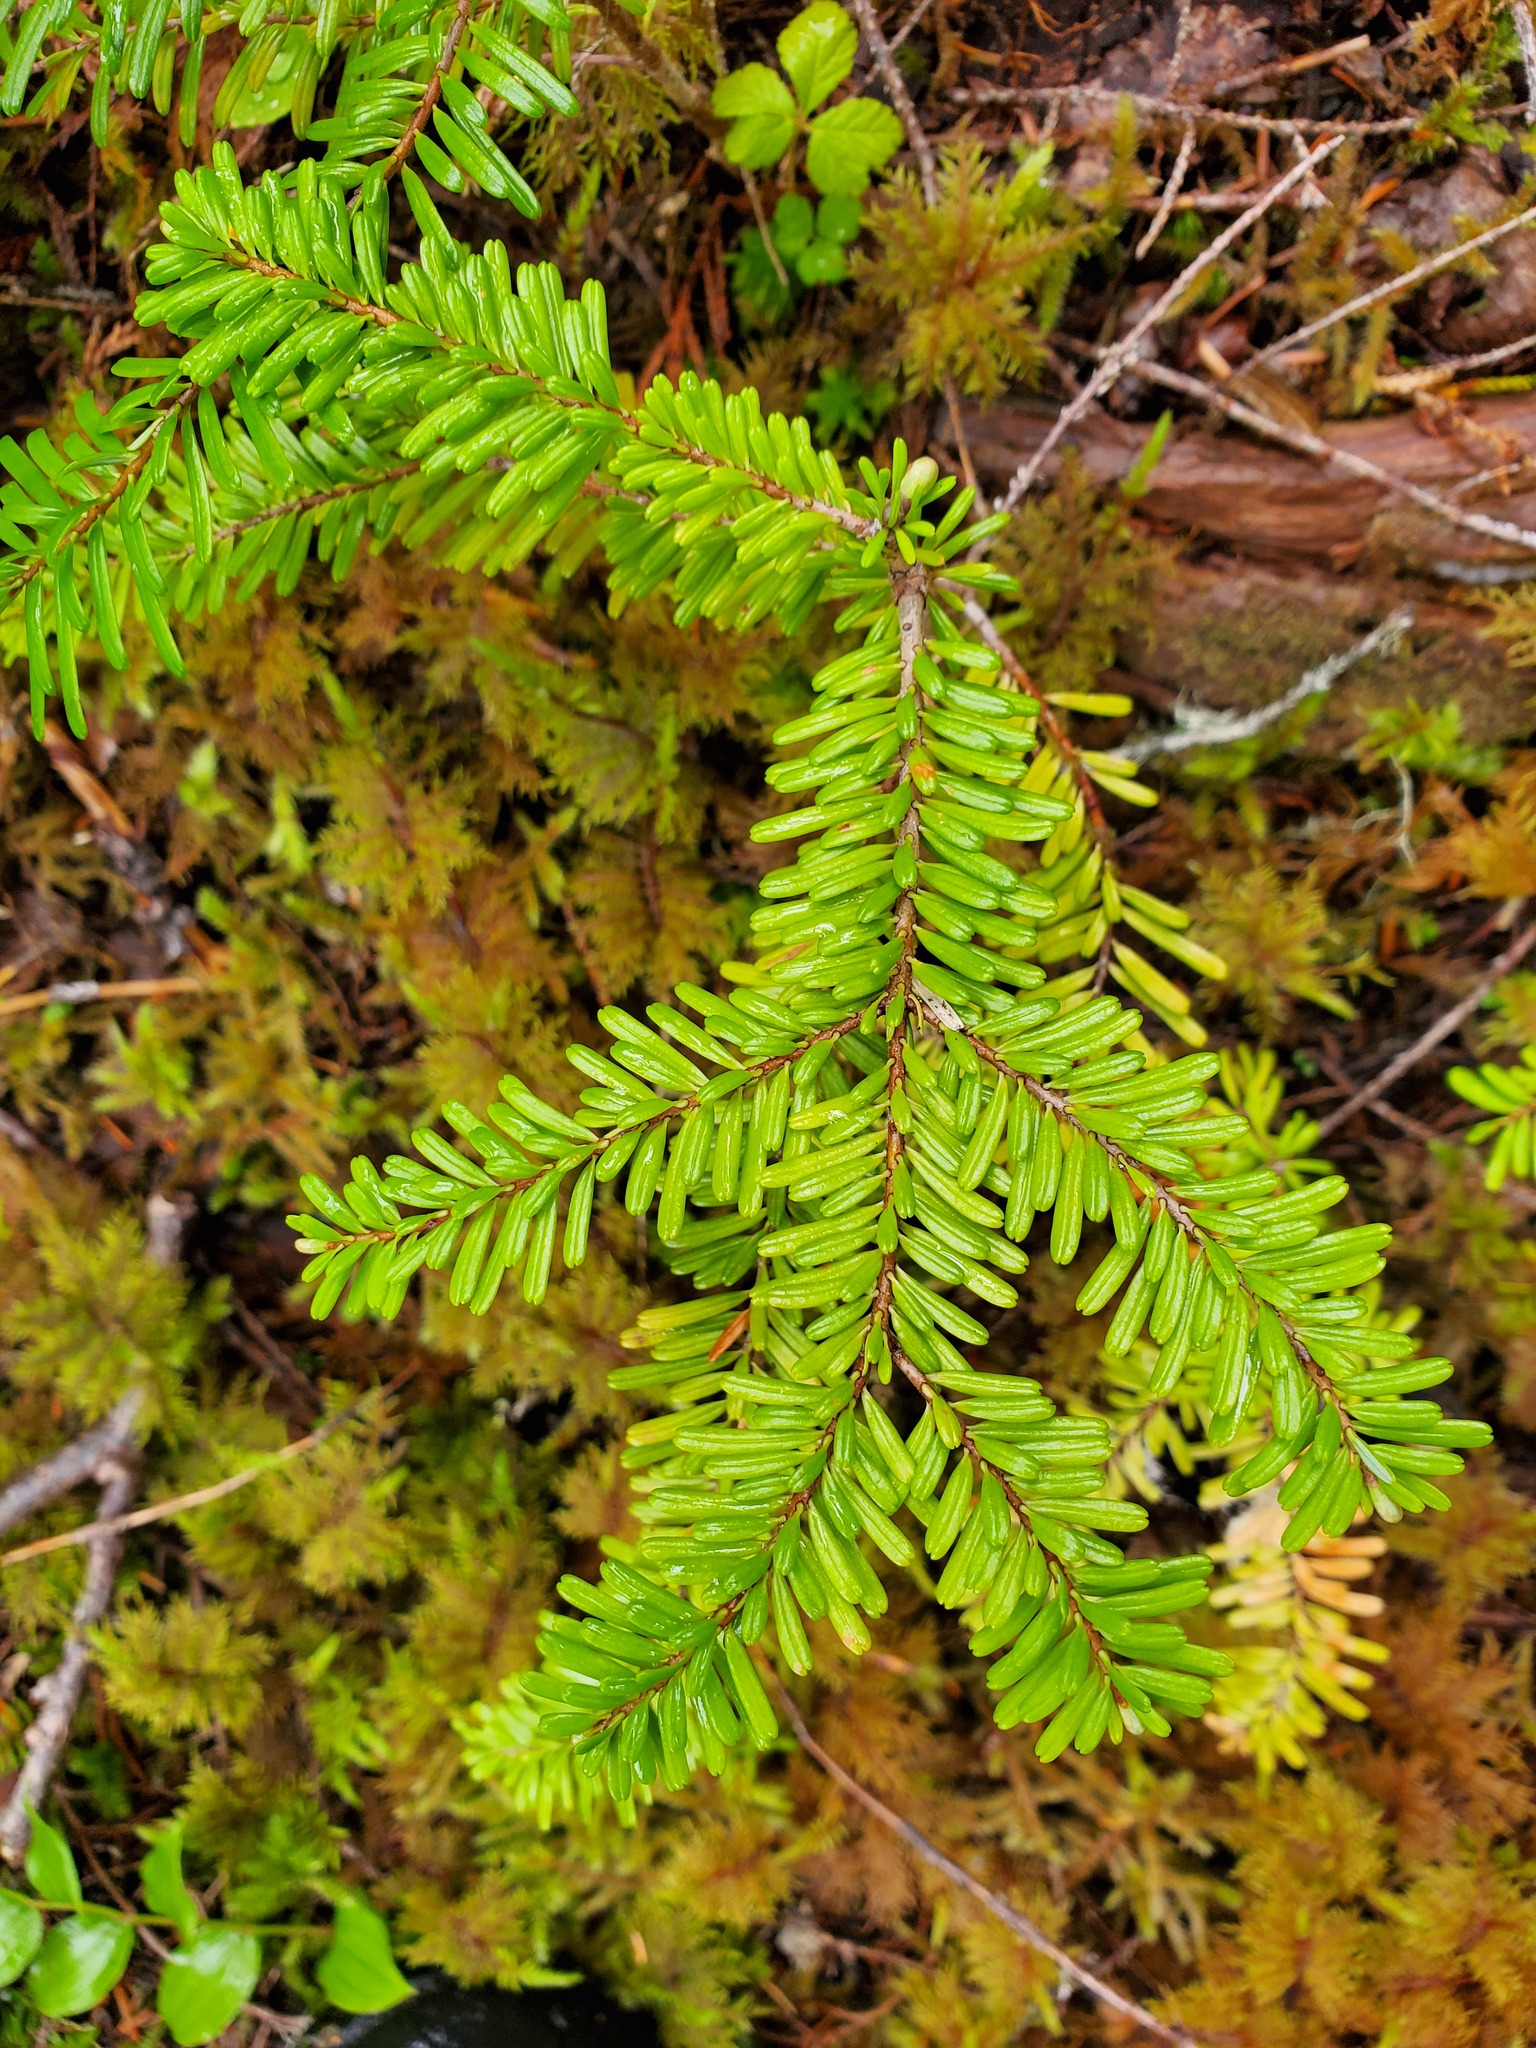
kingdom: Plantae
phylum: Tracheophyta
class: Pinopsida
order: Pinales
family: Pinaceae
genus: Abies
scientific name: Abies amabilis
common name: Pacific silver fir
